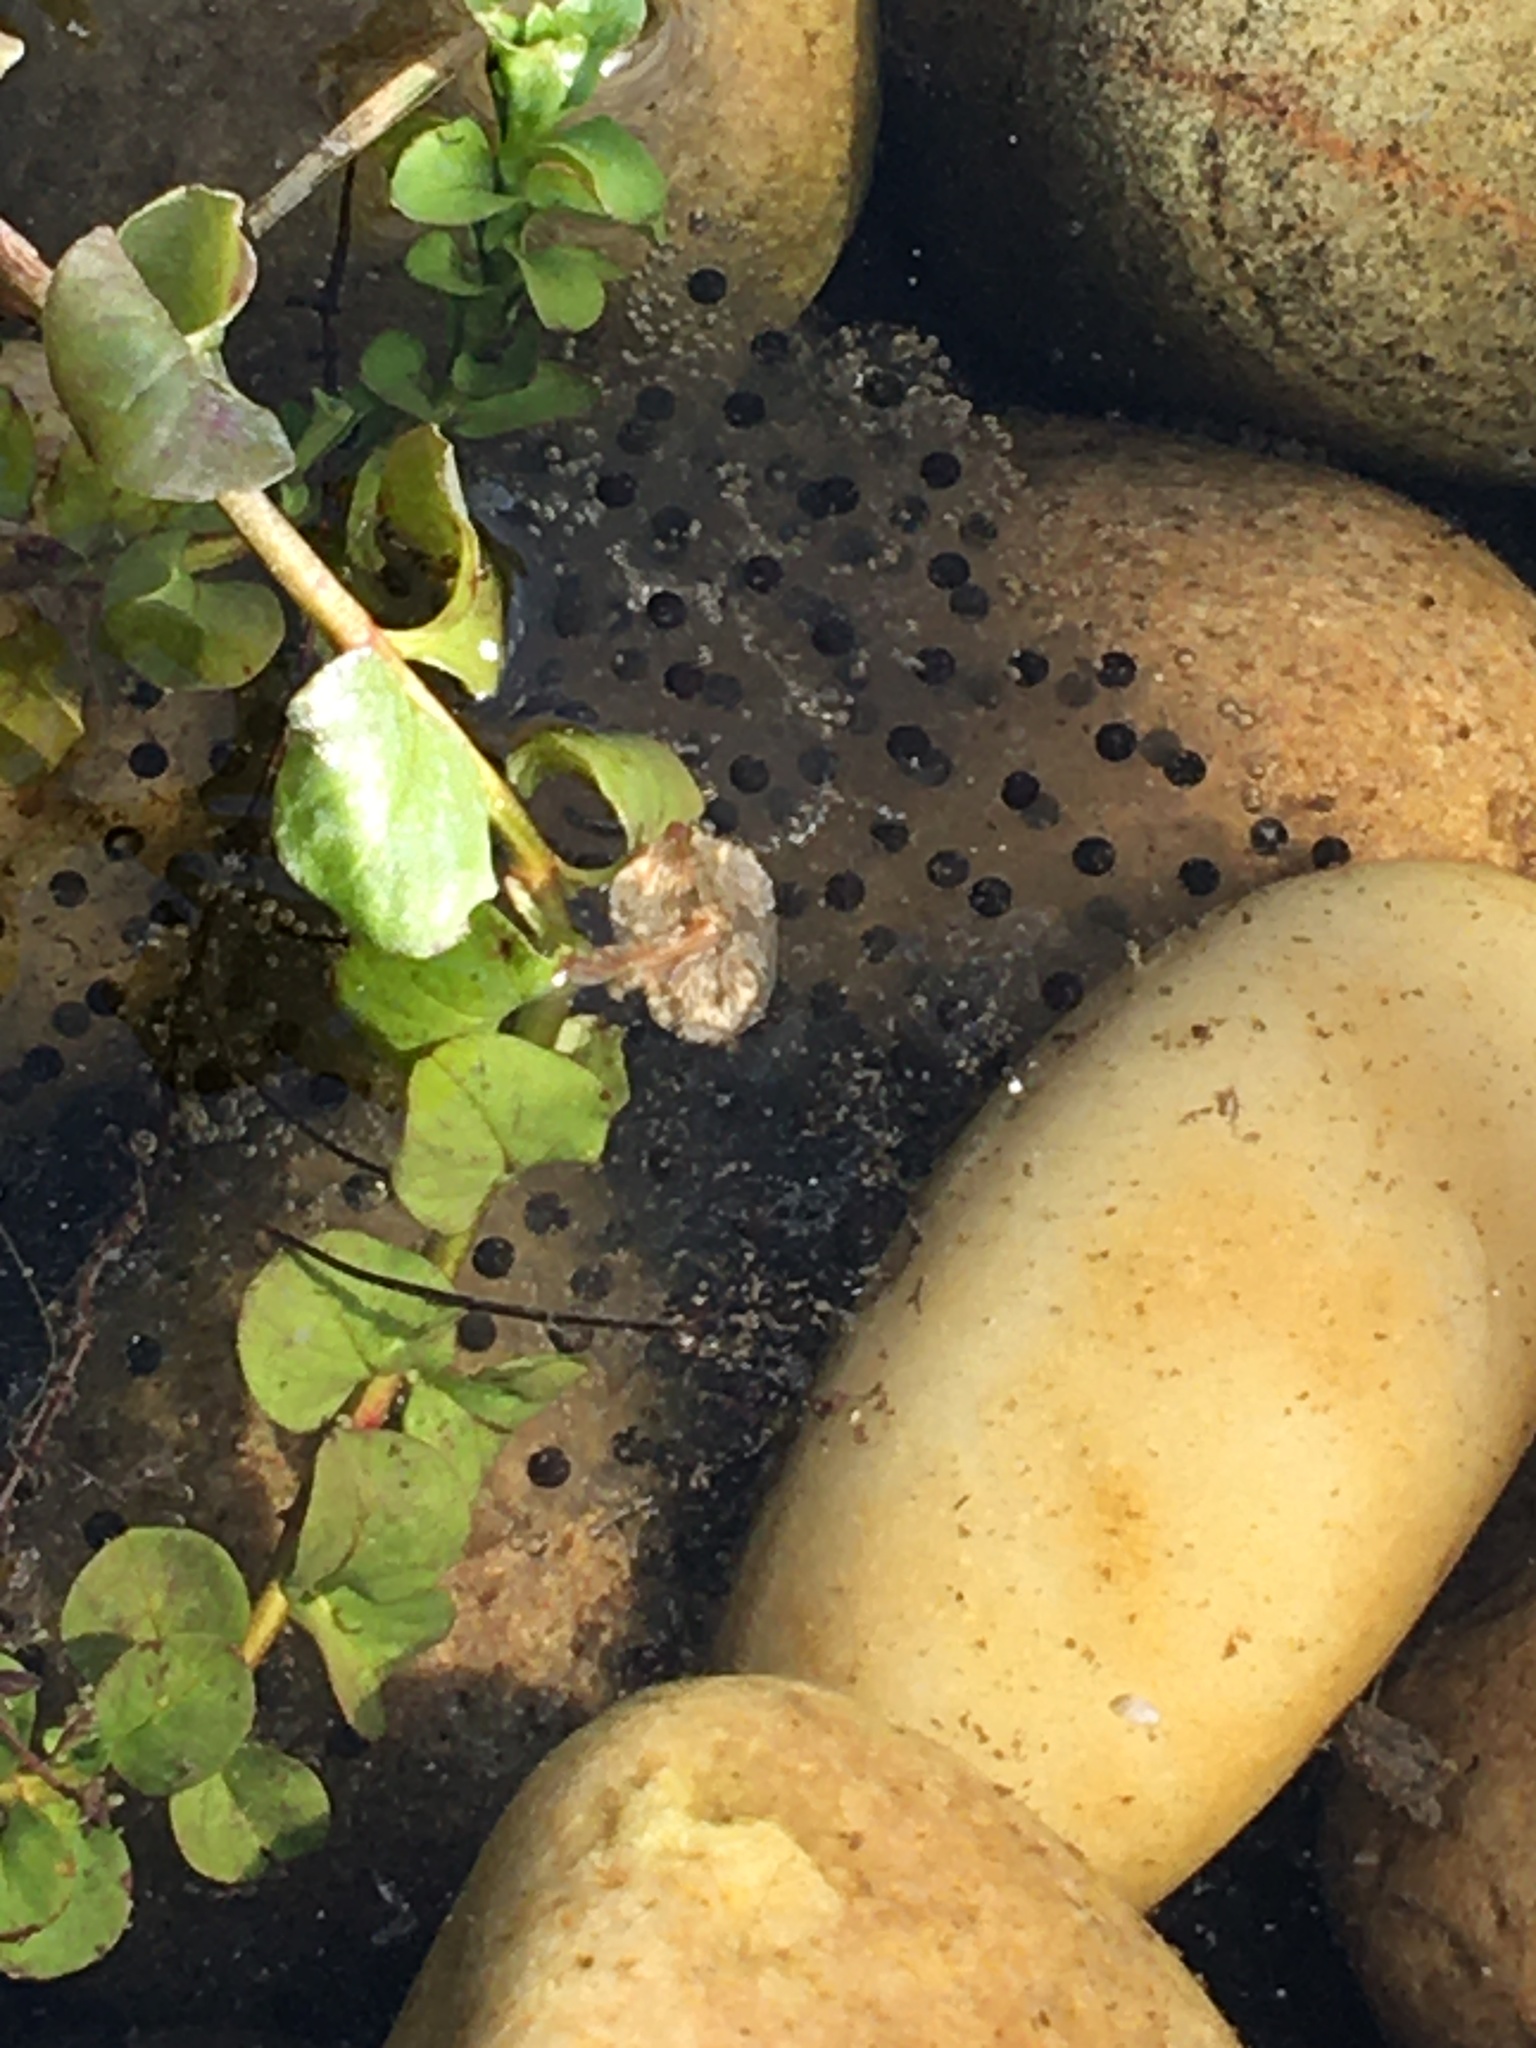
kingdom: Animalia
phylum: Chordata
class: Amphibia
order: Anura
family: Ranidae
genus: Rana
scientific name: Rana temporaria
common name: Common frog
